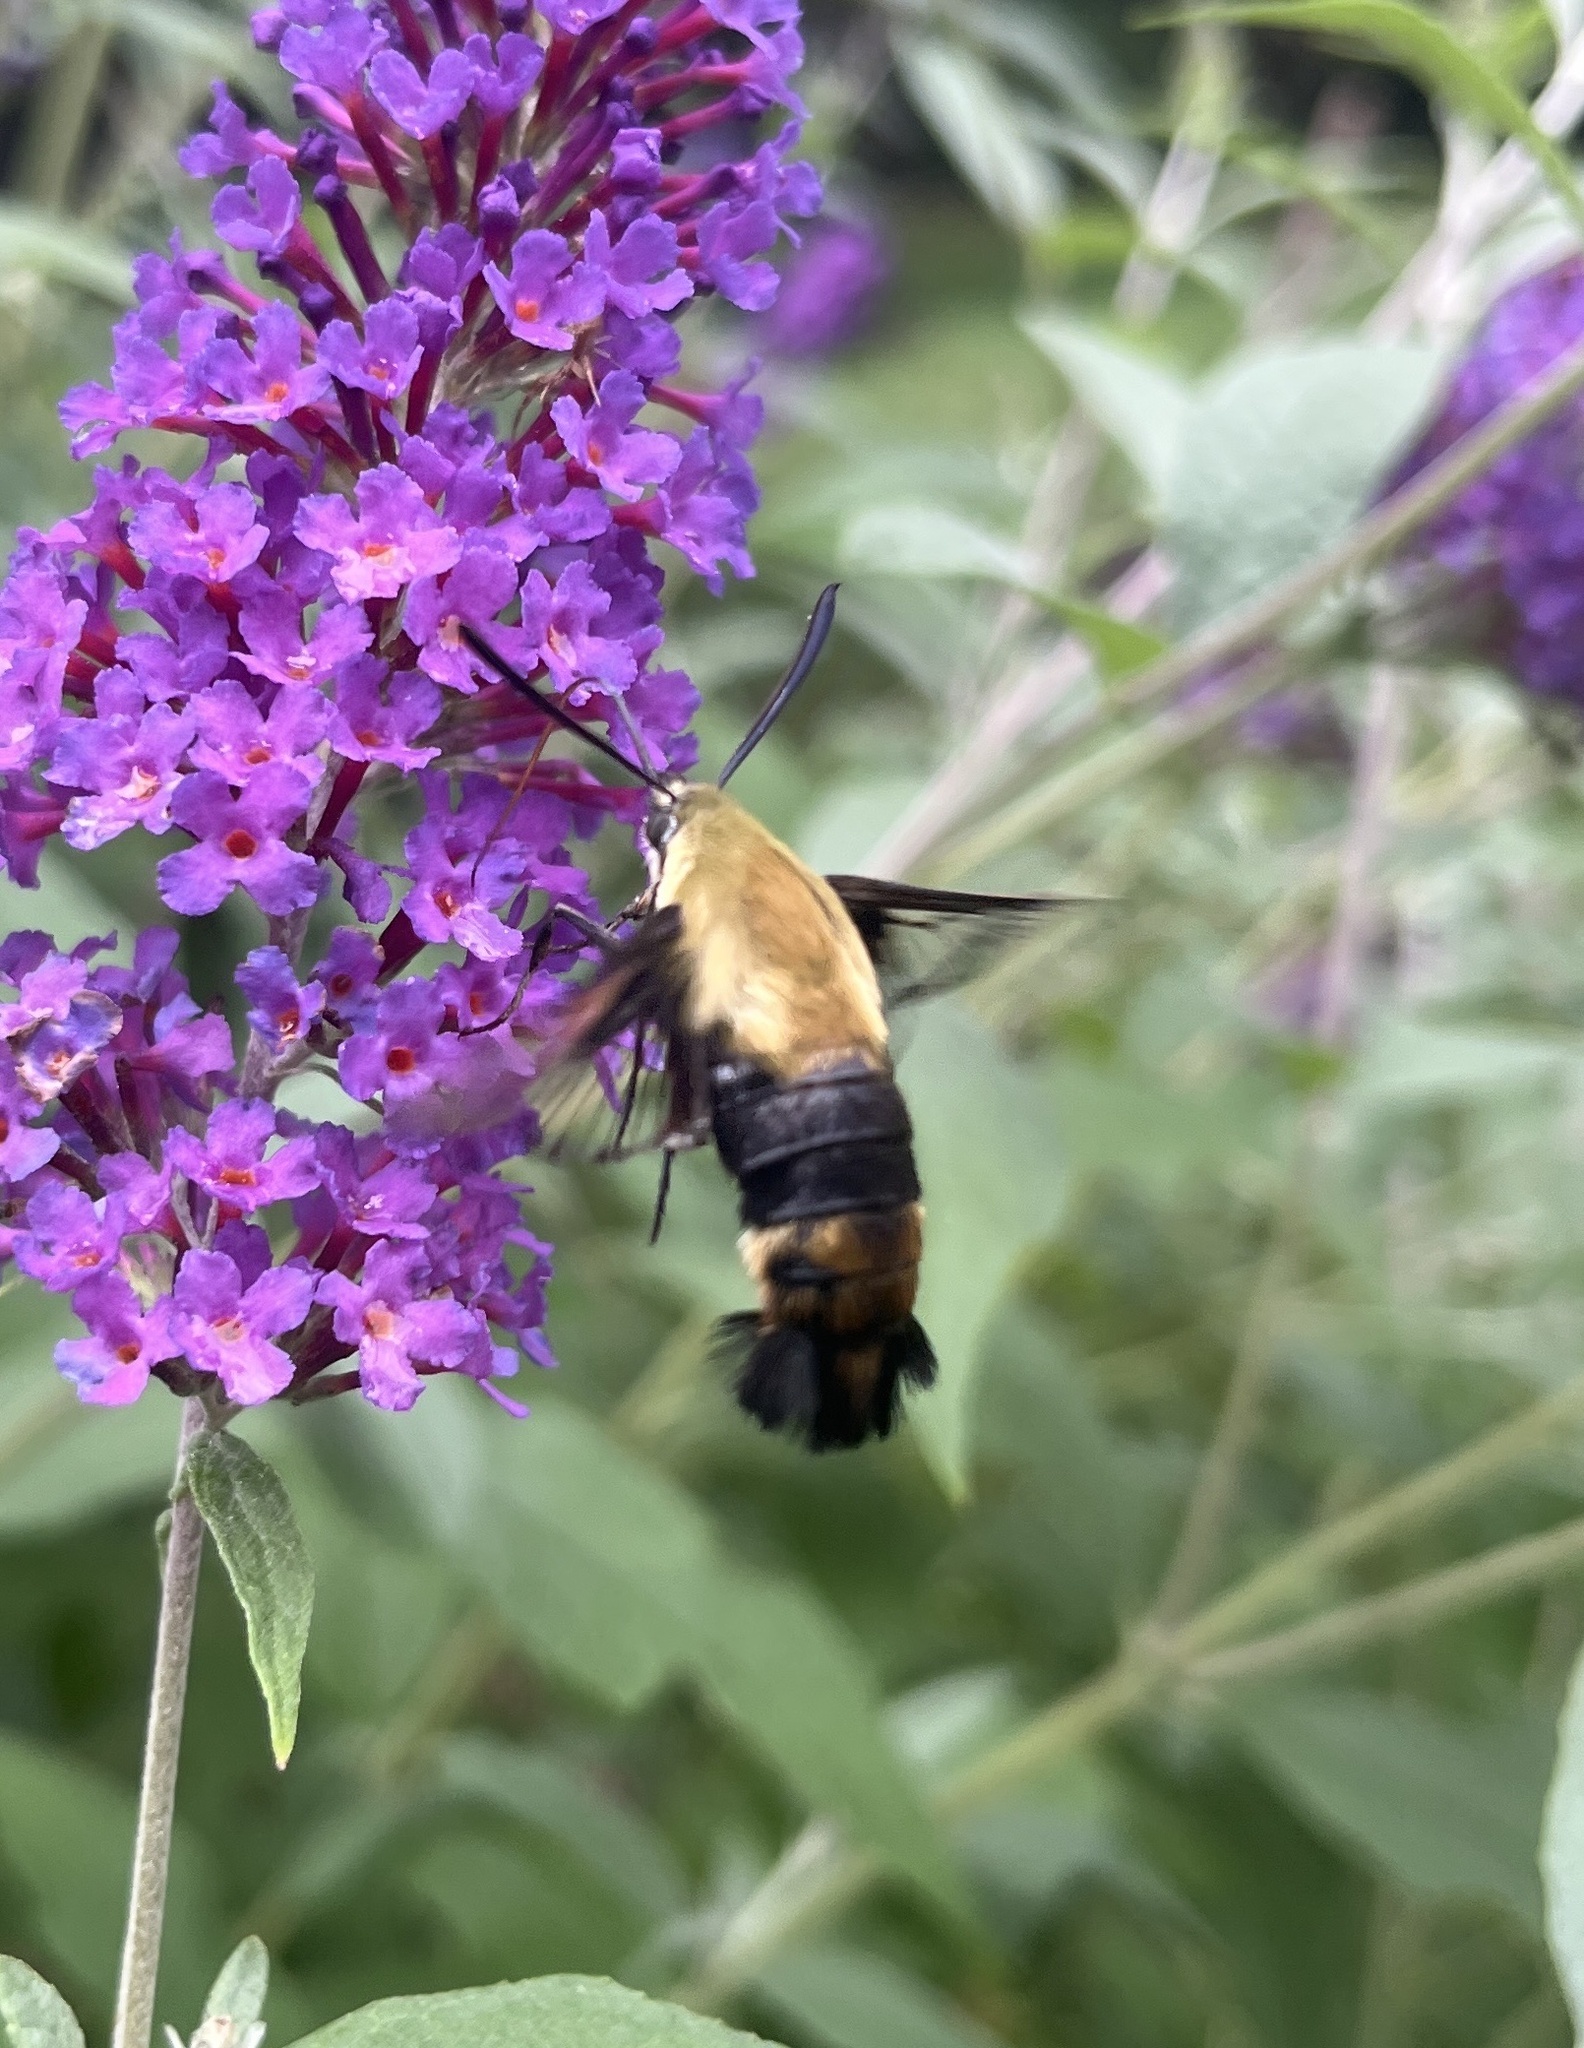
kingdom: Animalia
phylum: Arthropoda
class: Insecta
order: Lepidoptera
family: Sphingidae
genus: Hemaris
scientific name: Hemaris diffinis
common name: Bumblebee moth
